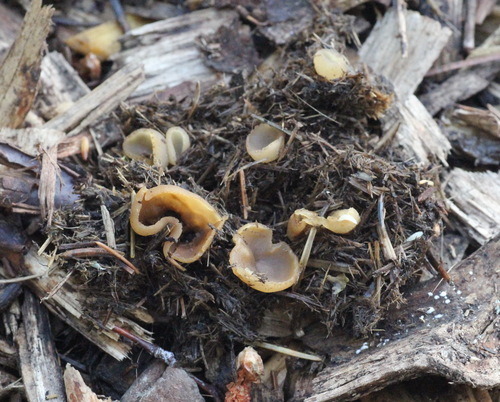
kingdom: Fungi
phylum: Ascomycota
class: Pezizomycetes
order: Pezizales
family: Pezizaceae
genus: Peziza
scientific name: Peziza fimeti
